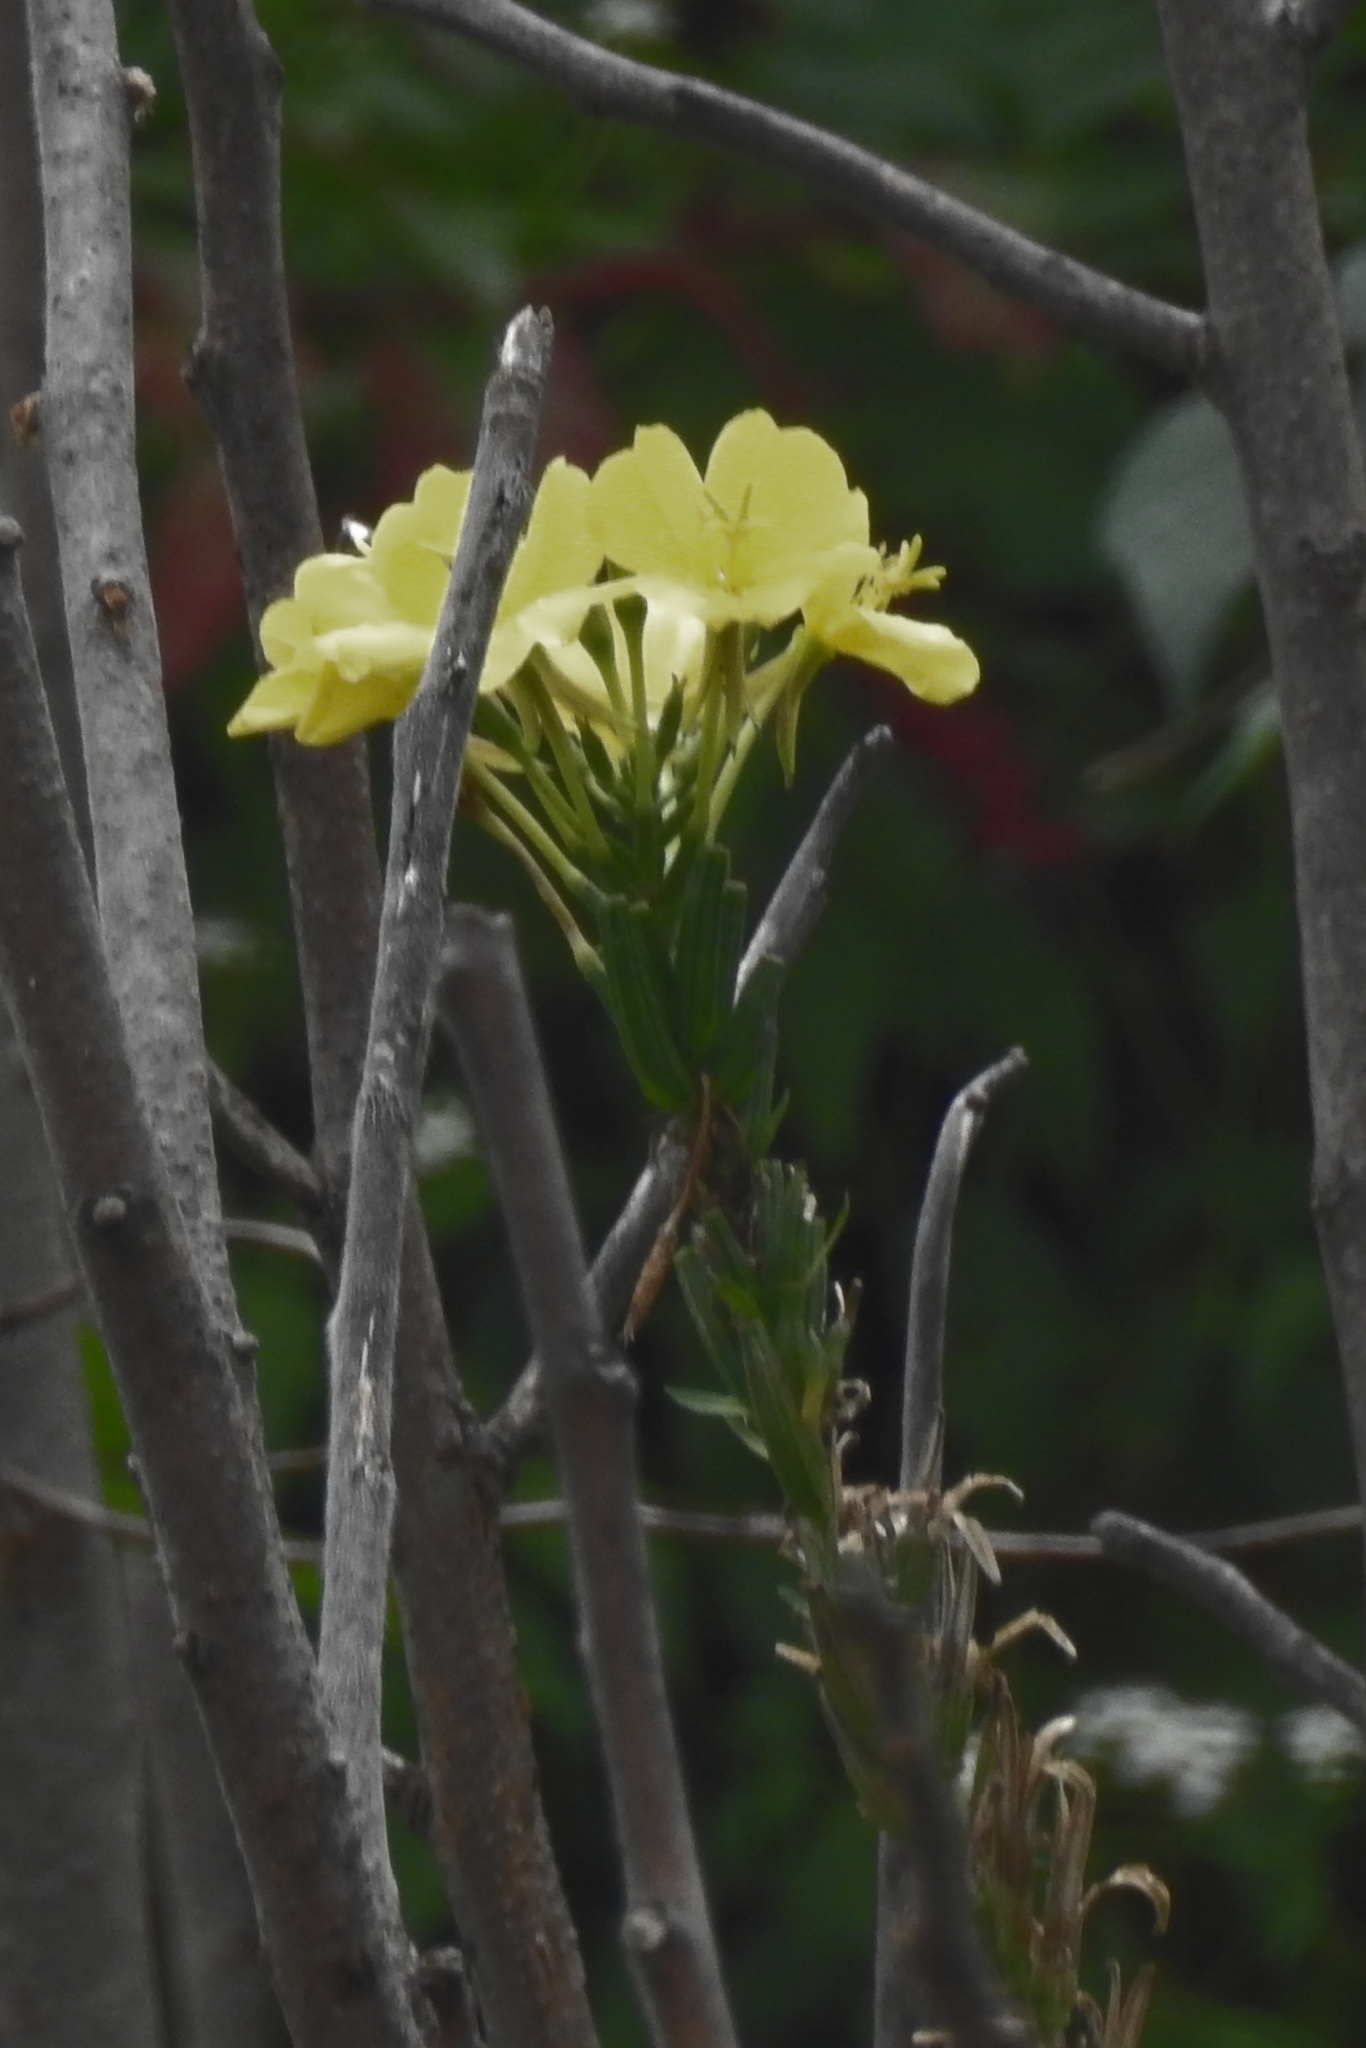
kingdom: Plantae
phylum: Tracheophyta
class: Magnoliopsida
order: Myrtales
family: Onagraceae
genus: Oenothera
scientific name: Oenothera biennis
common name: Common evening-primrose
